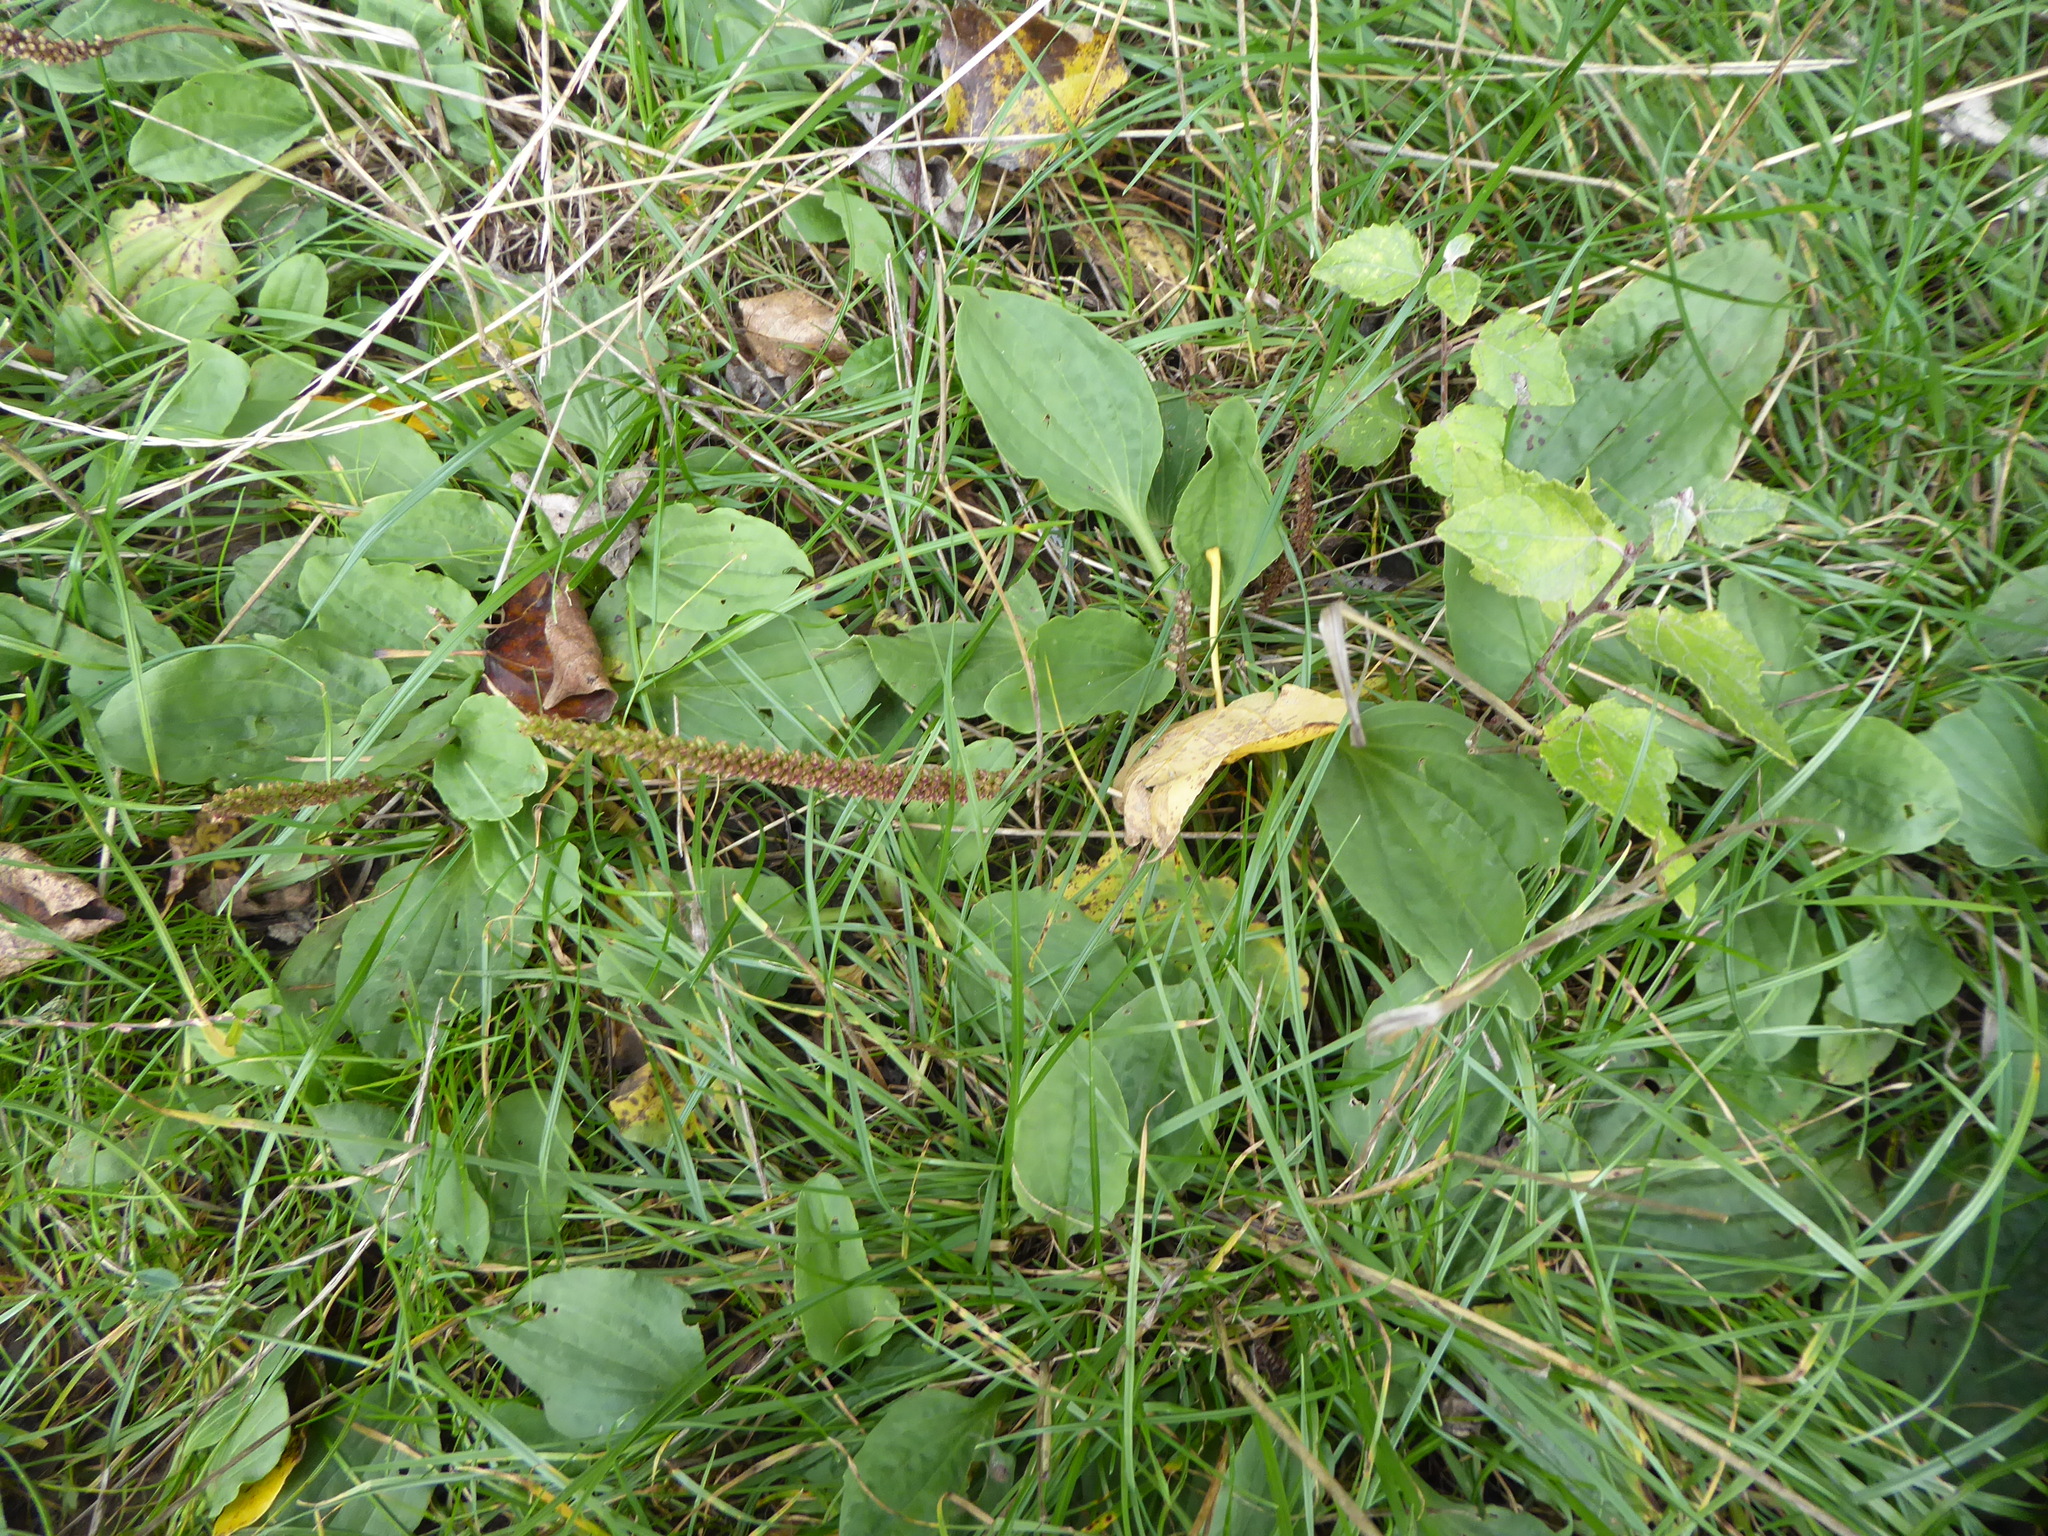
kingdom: Plantae
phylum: Tracheophyta
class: Magnoliopsida
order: Lamiales
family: Plantaginaceae
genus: Plantago
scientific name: Plantago major
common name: Common plantain
